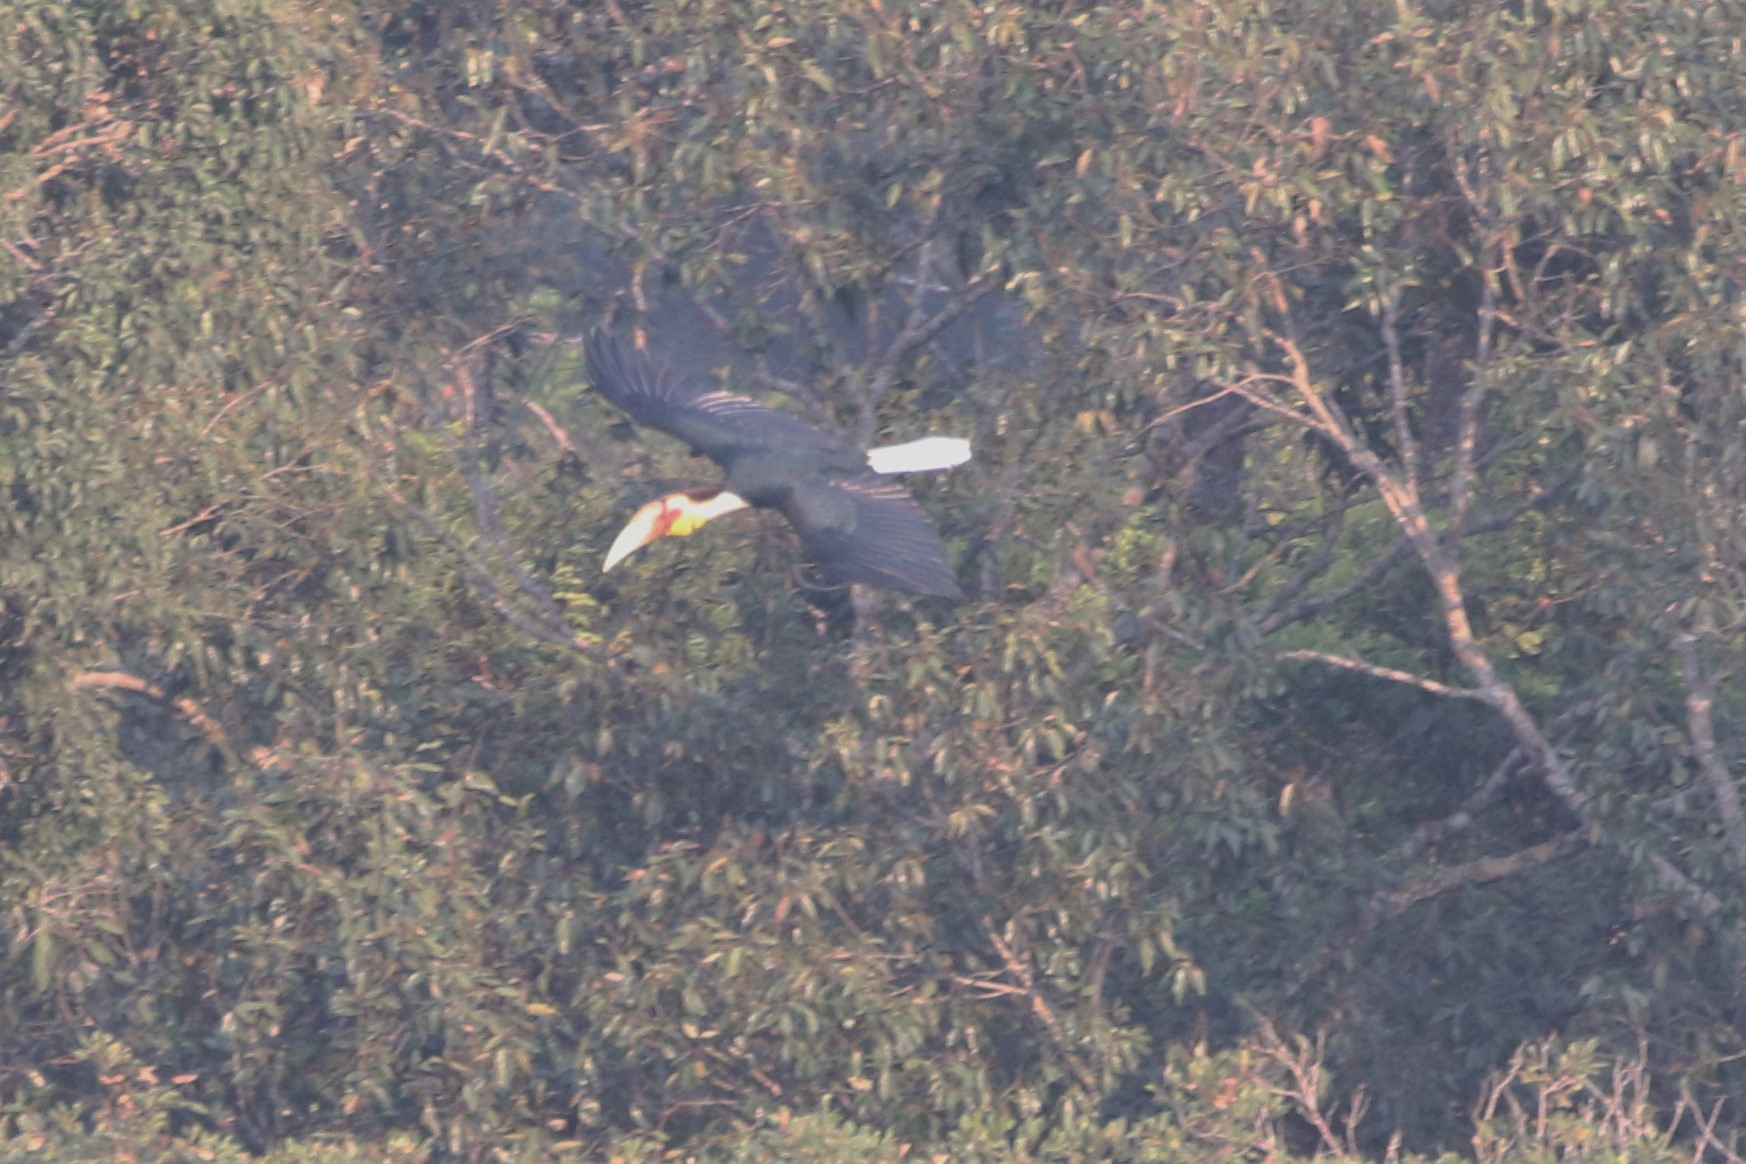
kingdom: Animalia
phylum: Chordata
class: Aves
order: Bucerotiformes
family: Bucerotidae
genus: Rhyticeros
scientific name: Rhyticeros undulatus
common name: Wreathed hornbill
